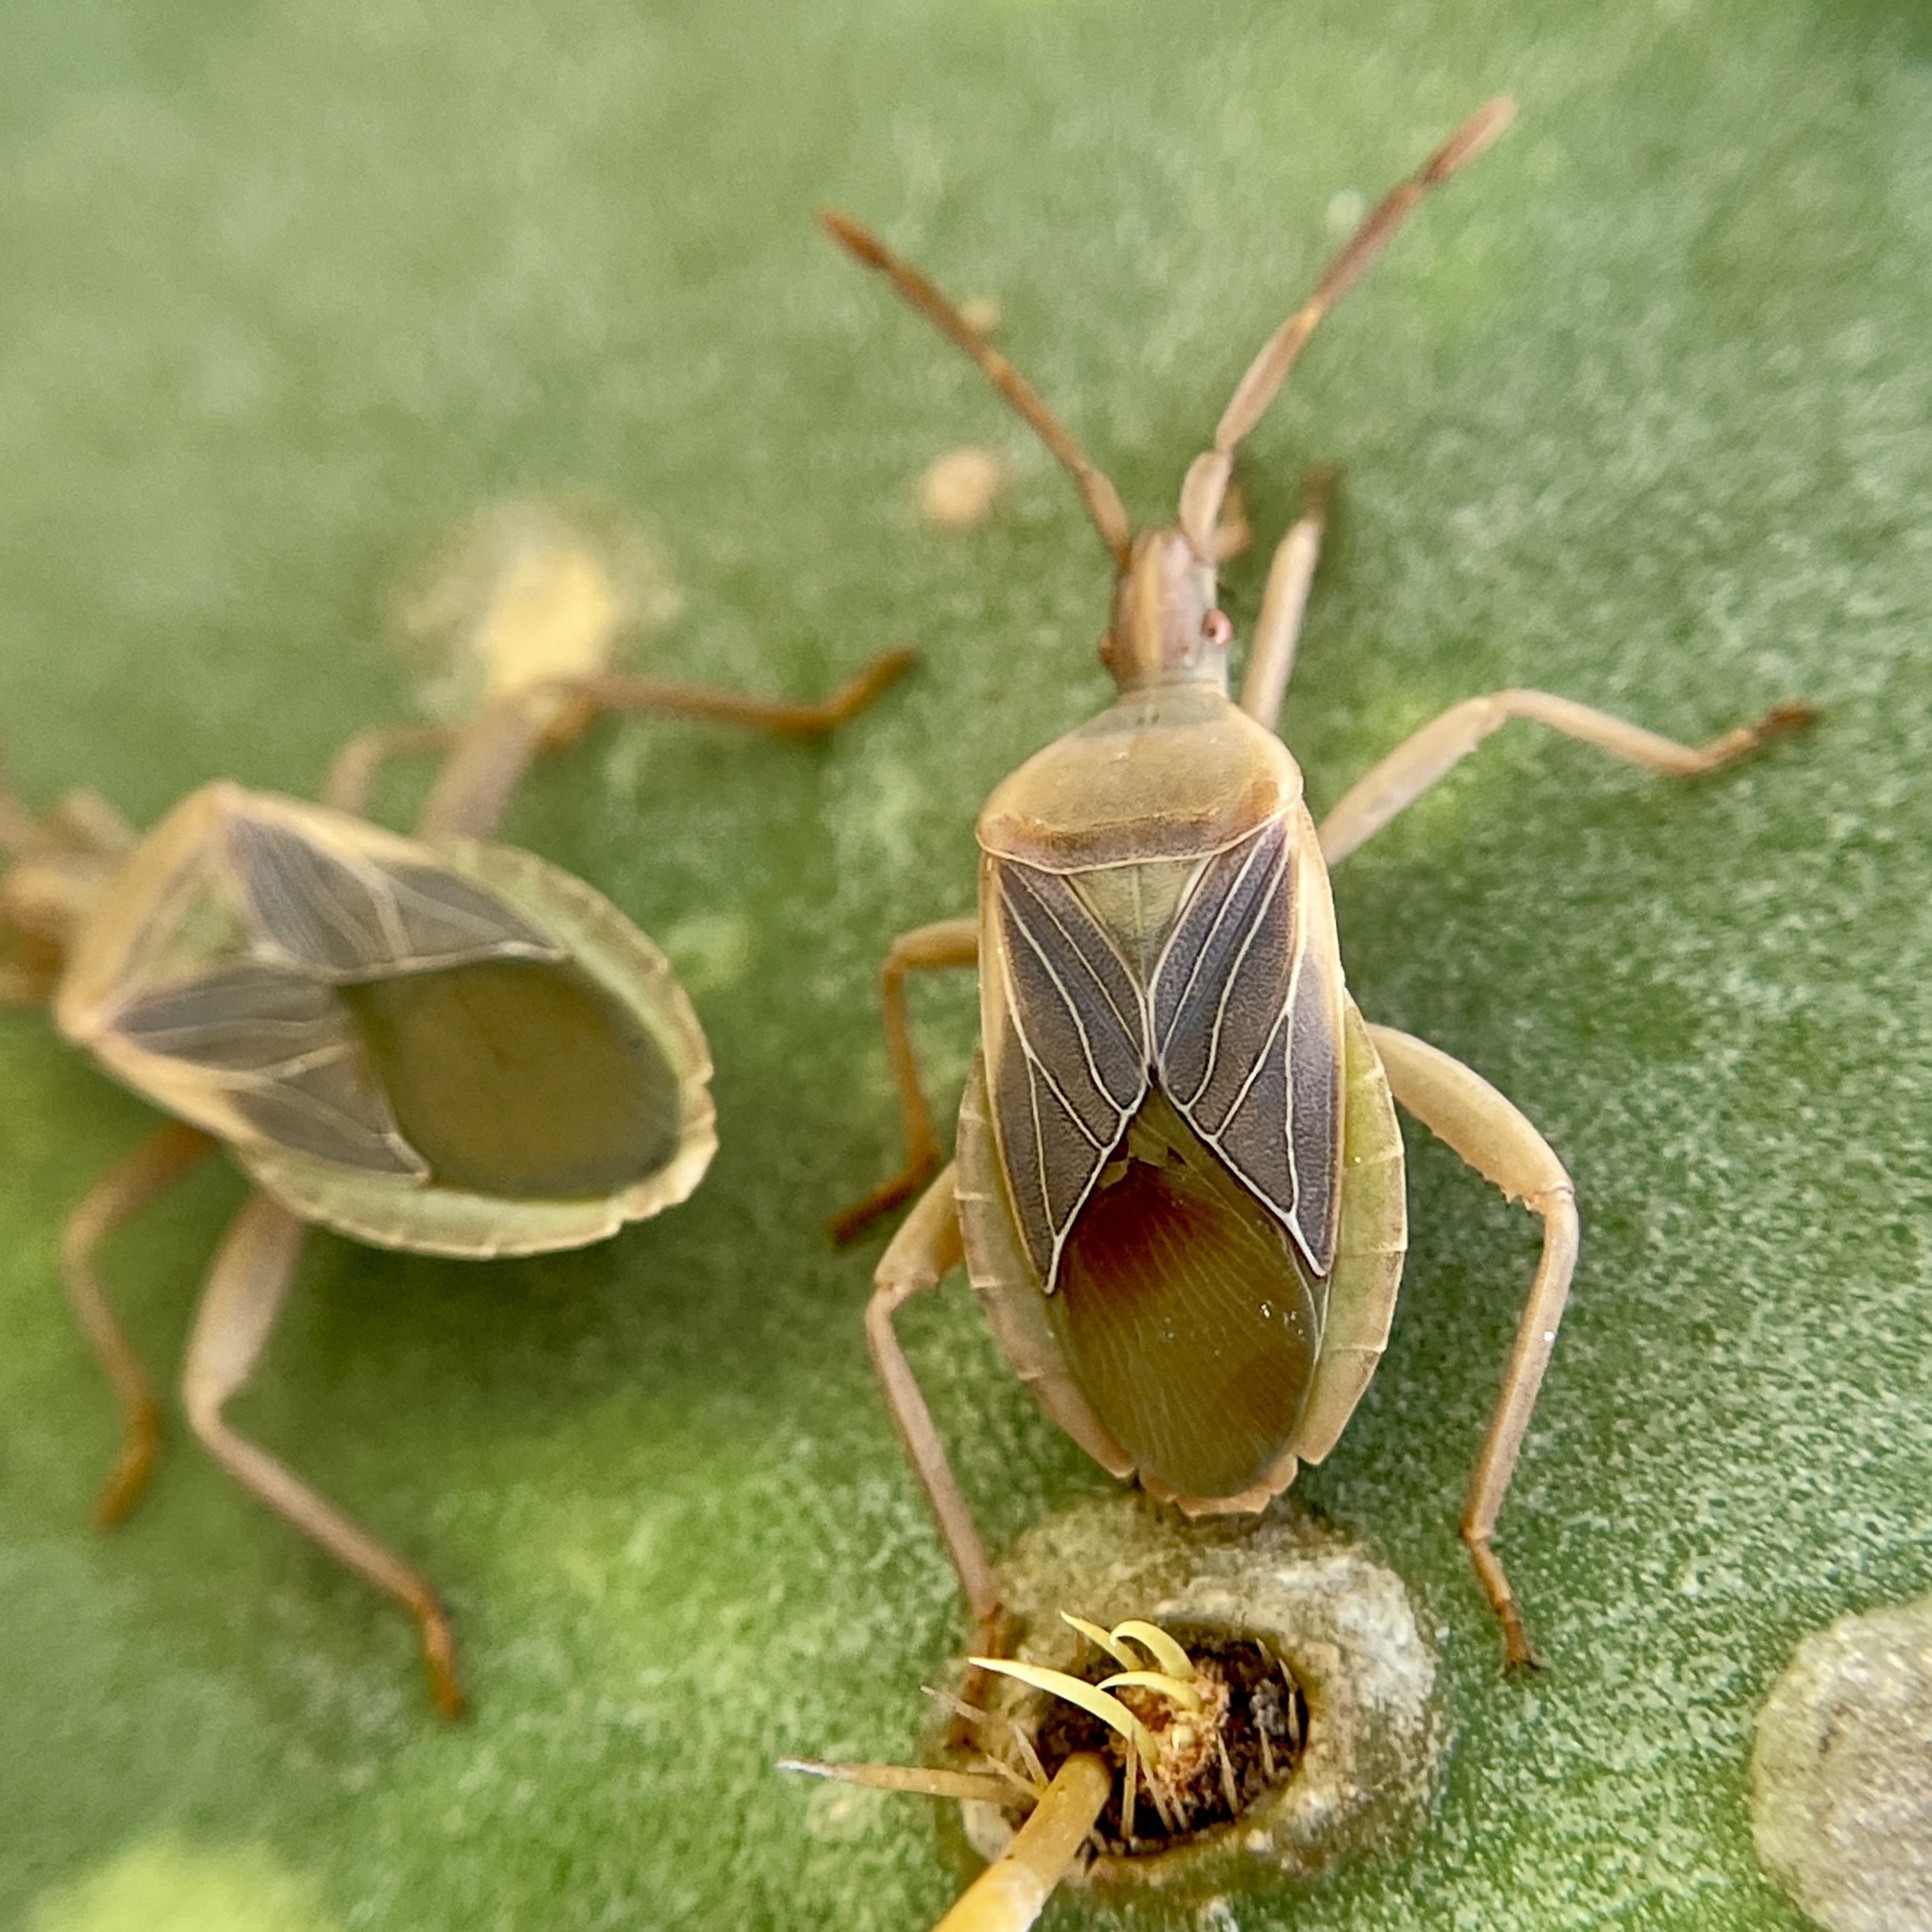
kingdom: Animalia
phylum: Arthropoda
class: Insecta
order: Hemiptera
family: Coreidae
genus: Chelinidea
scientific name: Chelinidea vittiger
